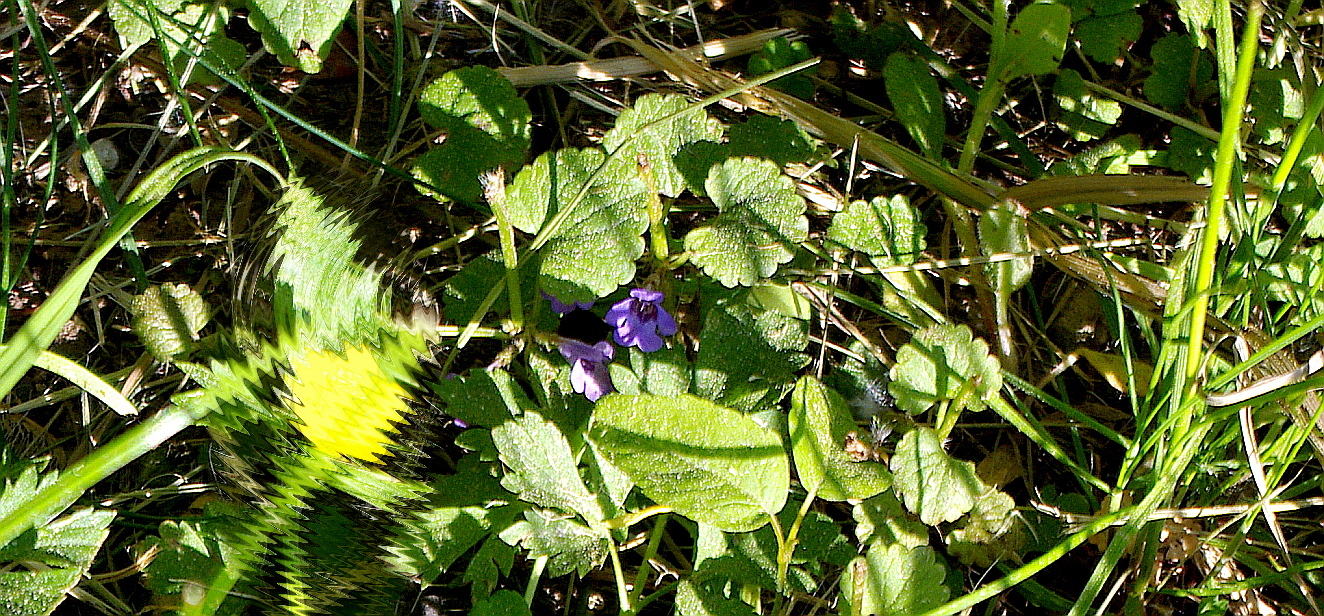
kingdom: Plantae
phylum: Tracheophyta
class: Magnoliopsida
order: Lamiales
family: Lamiaceae
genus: Glechoma
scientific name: Glechoma hederacea
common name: Ground ivy
